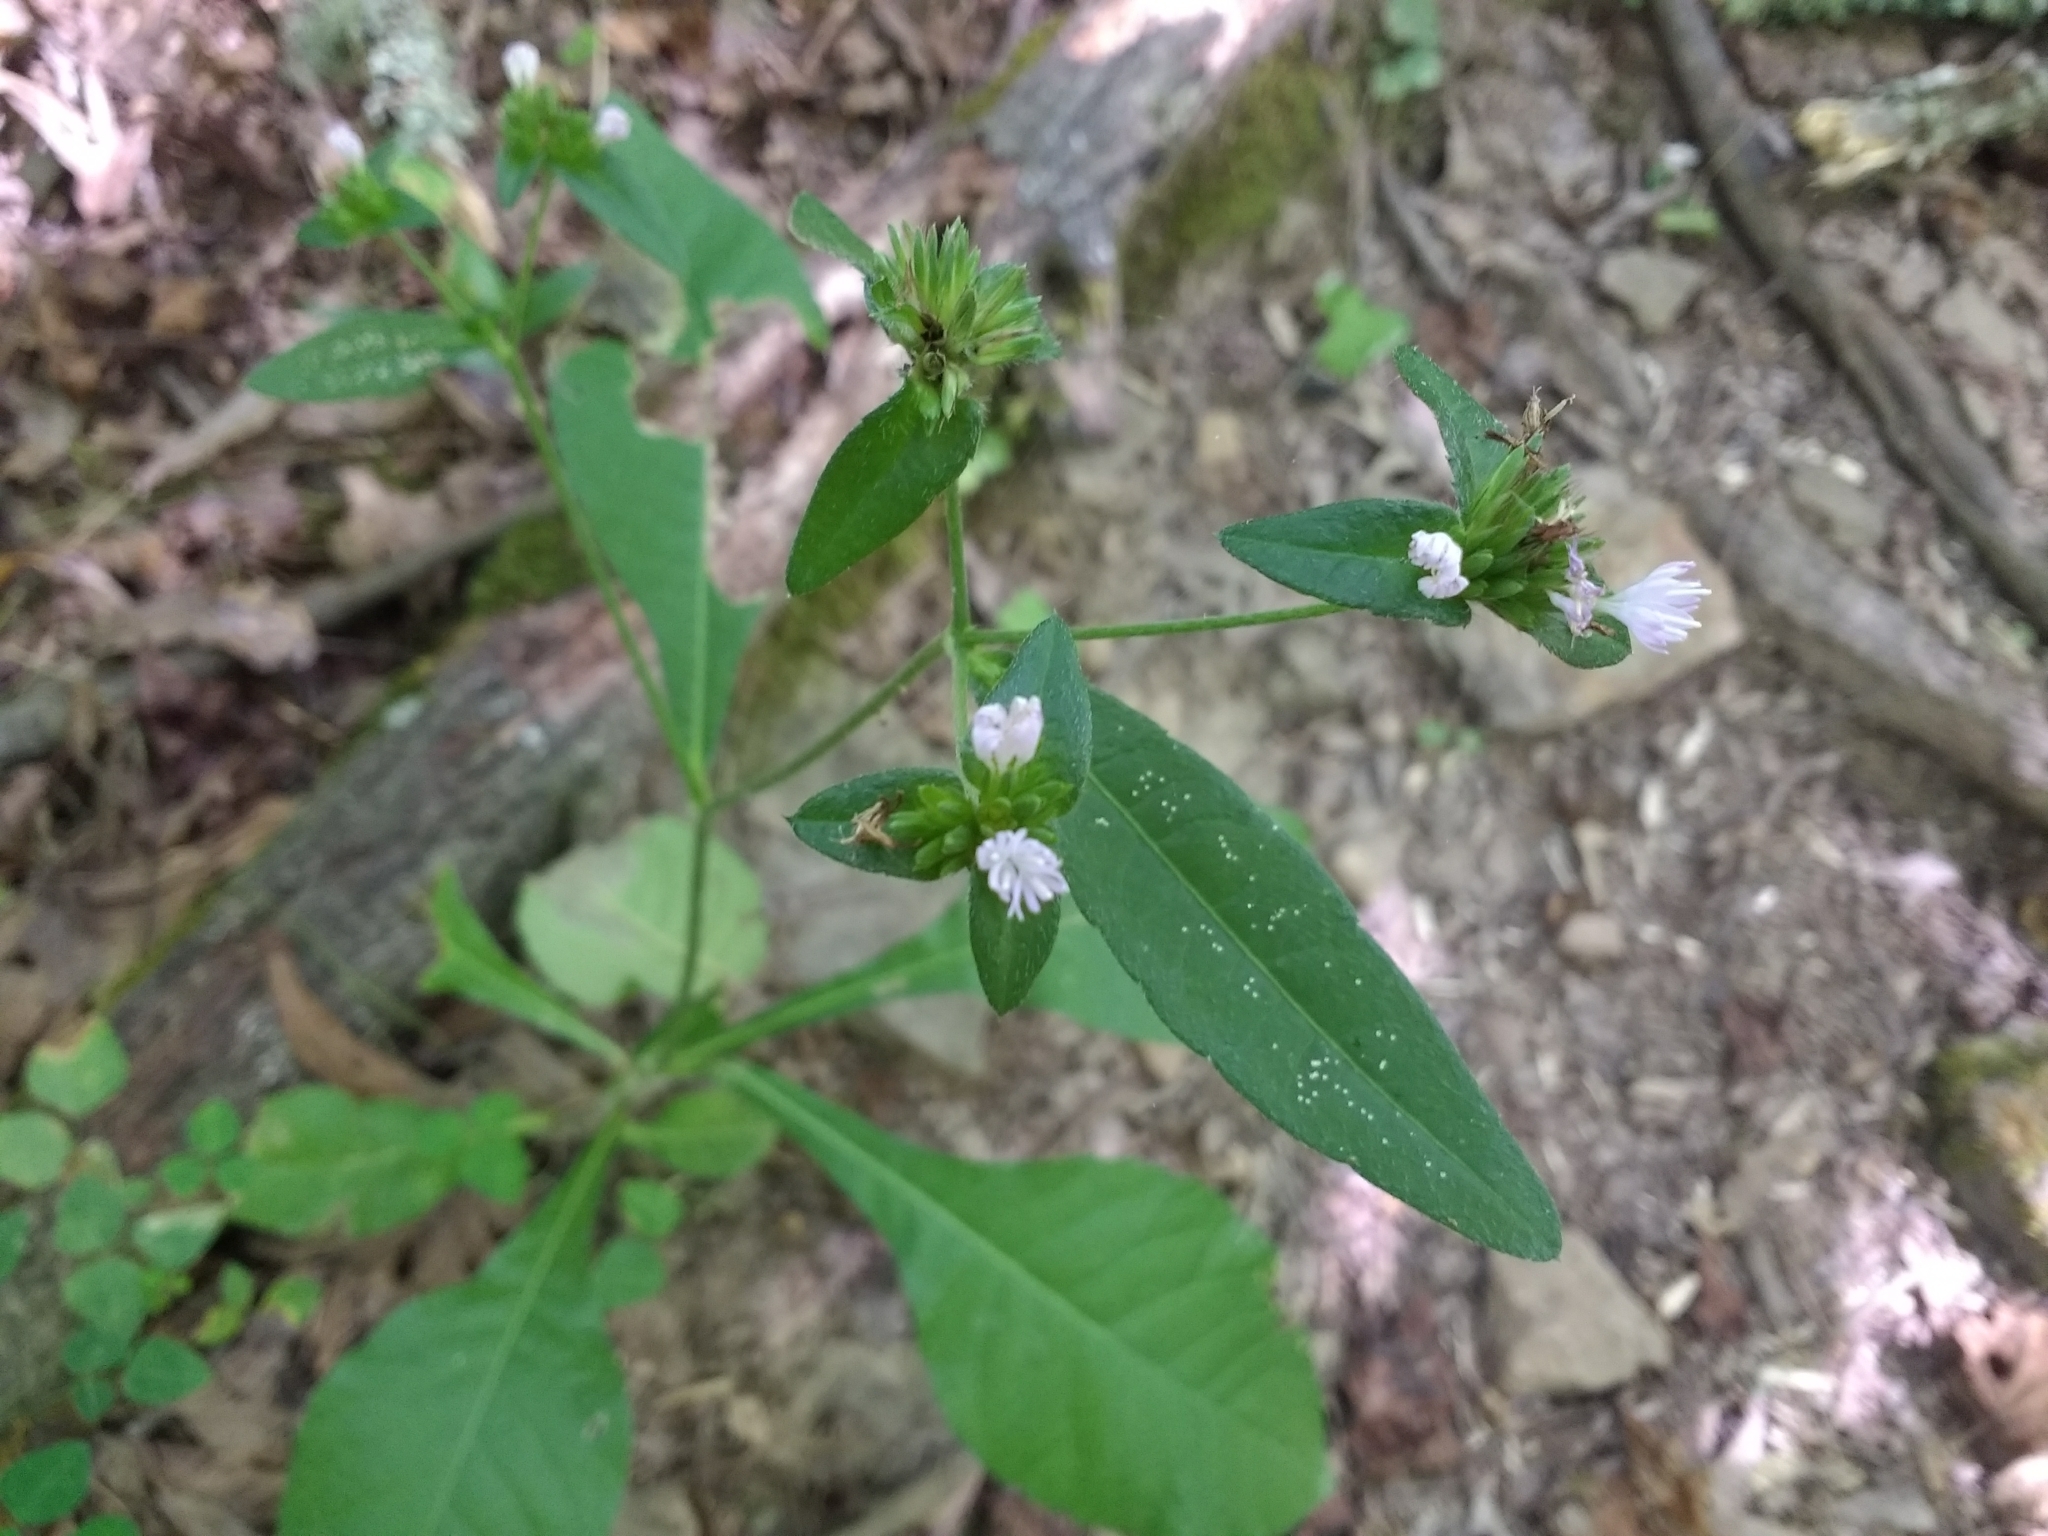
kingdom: Plantae
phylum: Tracheophyta
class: Magnoliopsida
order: Asterales
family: Asteraceae
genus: Elephantopus
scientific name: Elephantopus carolinianus
